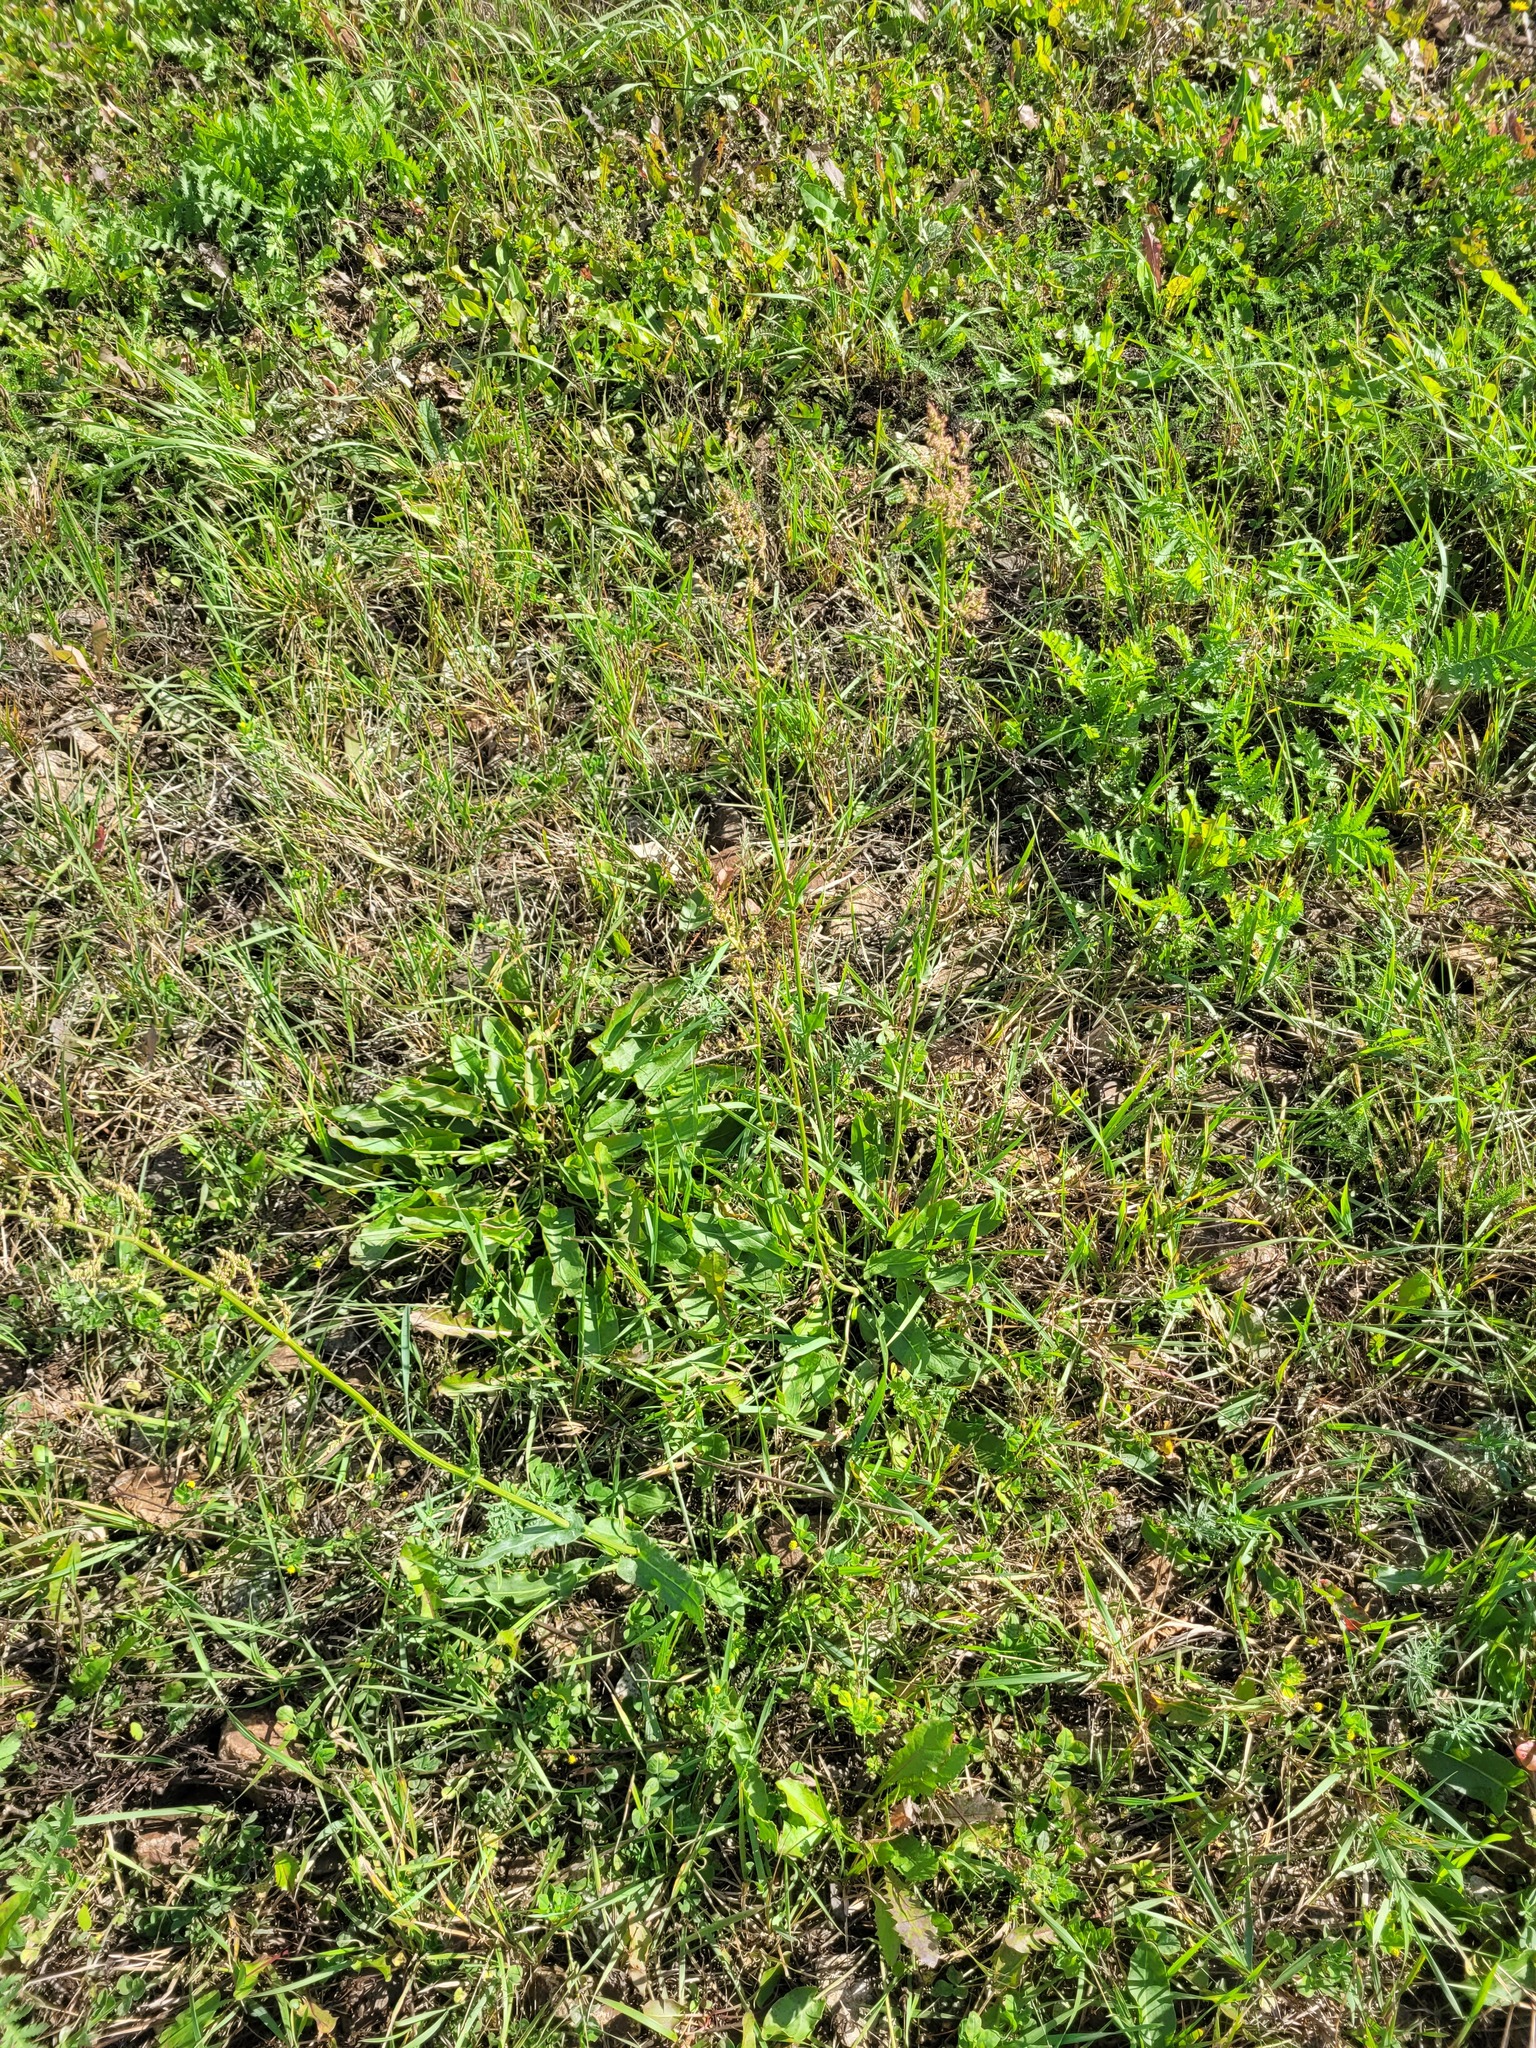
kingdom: Plantae
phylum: Tracheophyta
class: Magnoliopsida
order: Caryophyllales
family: Polygonaceae
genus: Rumex
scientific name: Rumex thyrsiflorus
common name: Garden sorrel
